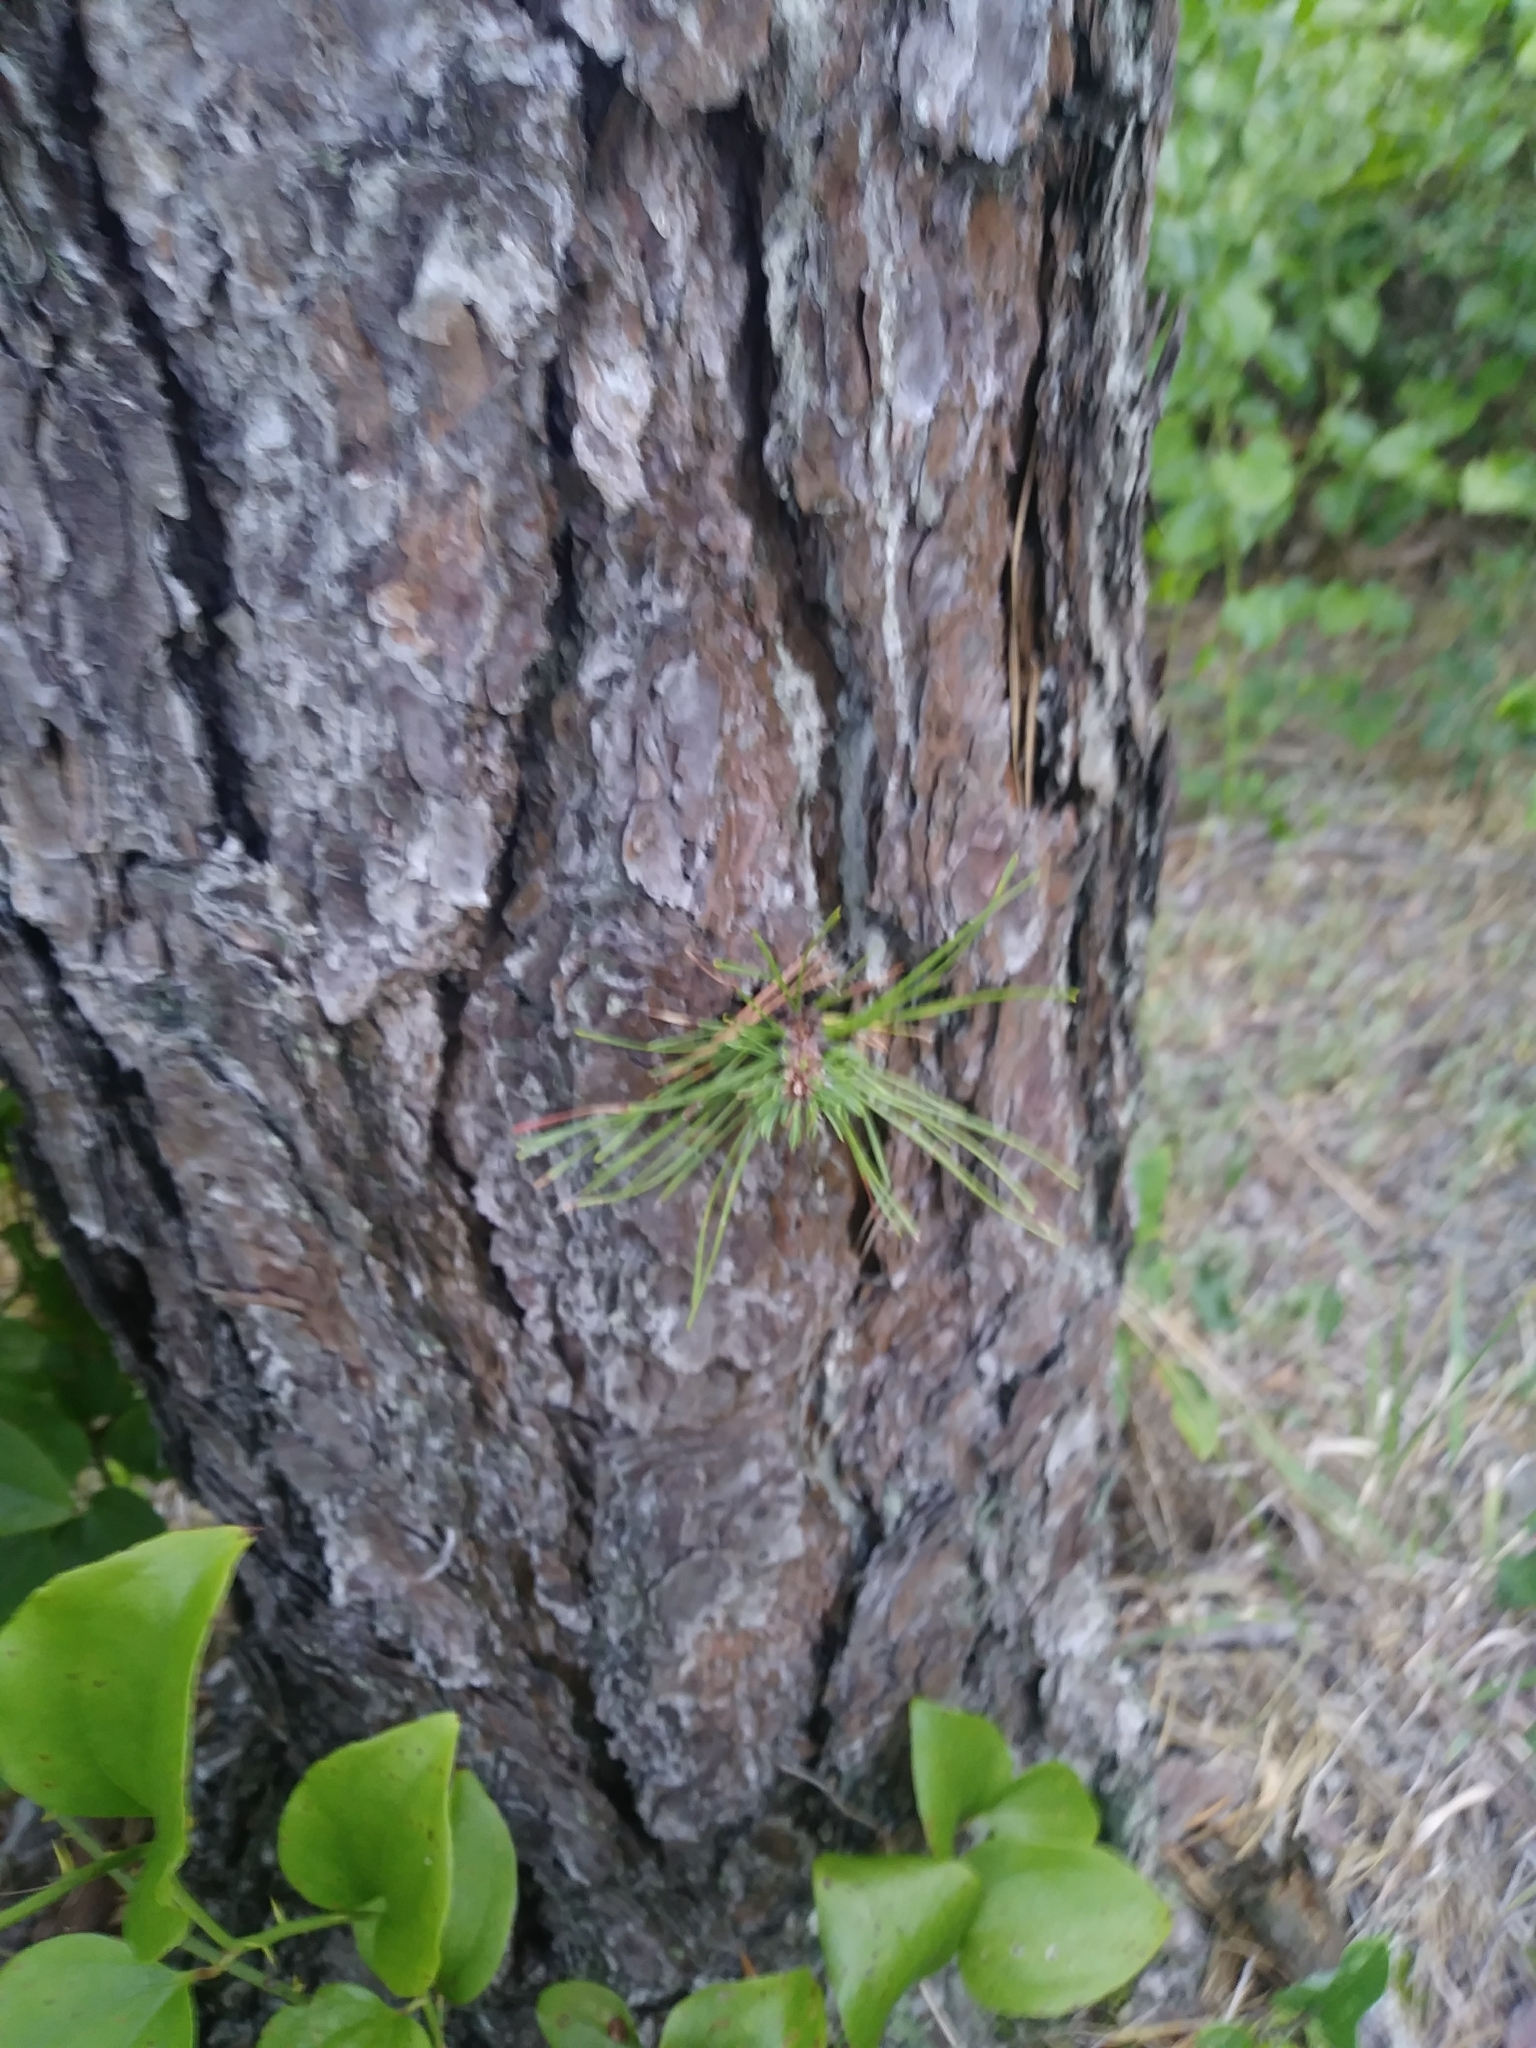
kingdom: Plantae
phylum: Tracheophyta
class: Pinopsida
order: Pinales
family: Pinaceae
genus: Pinus
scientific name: Pinus rigida
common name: Pitch pine
